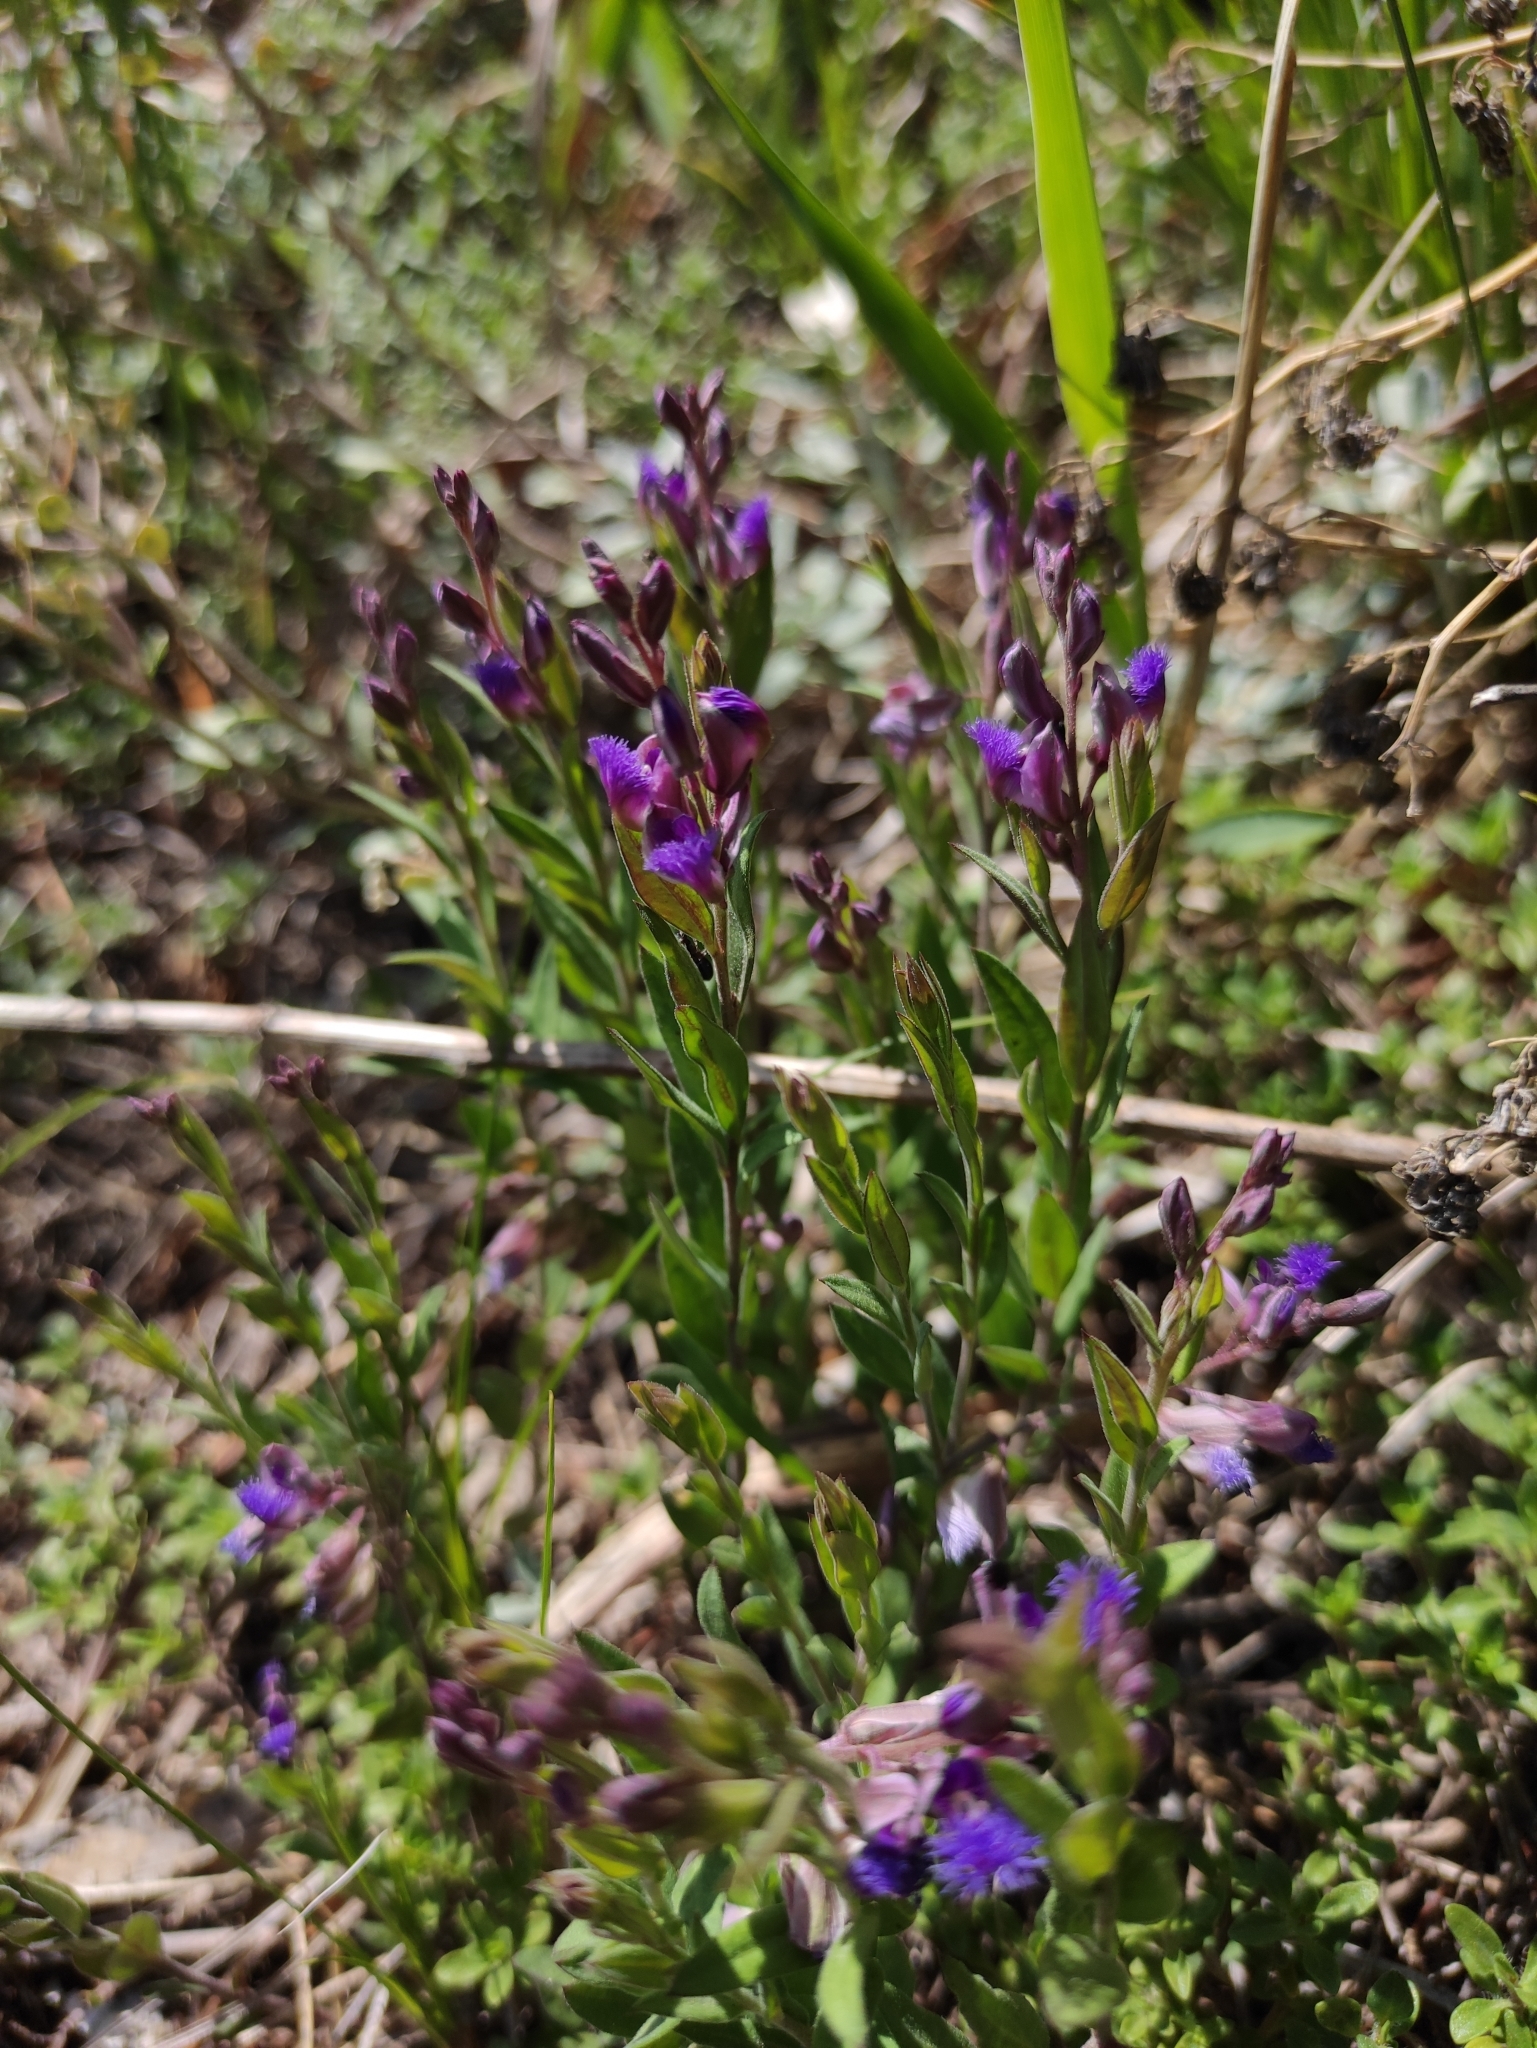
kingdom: Plantae
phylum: Tracheophyta
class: Magnoliopsida
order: Fabales
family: Polygalaceae
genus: Polygala
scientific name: Polygala sibirica
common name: Siberian polygala
